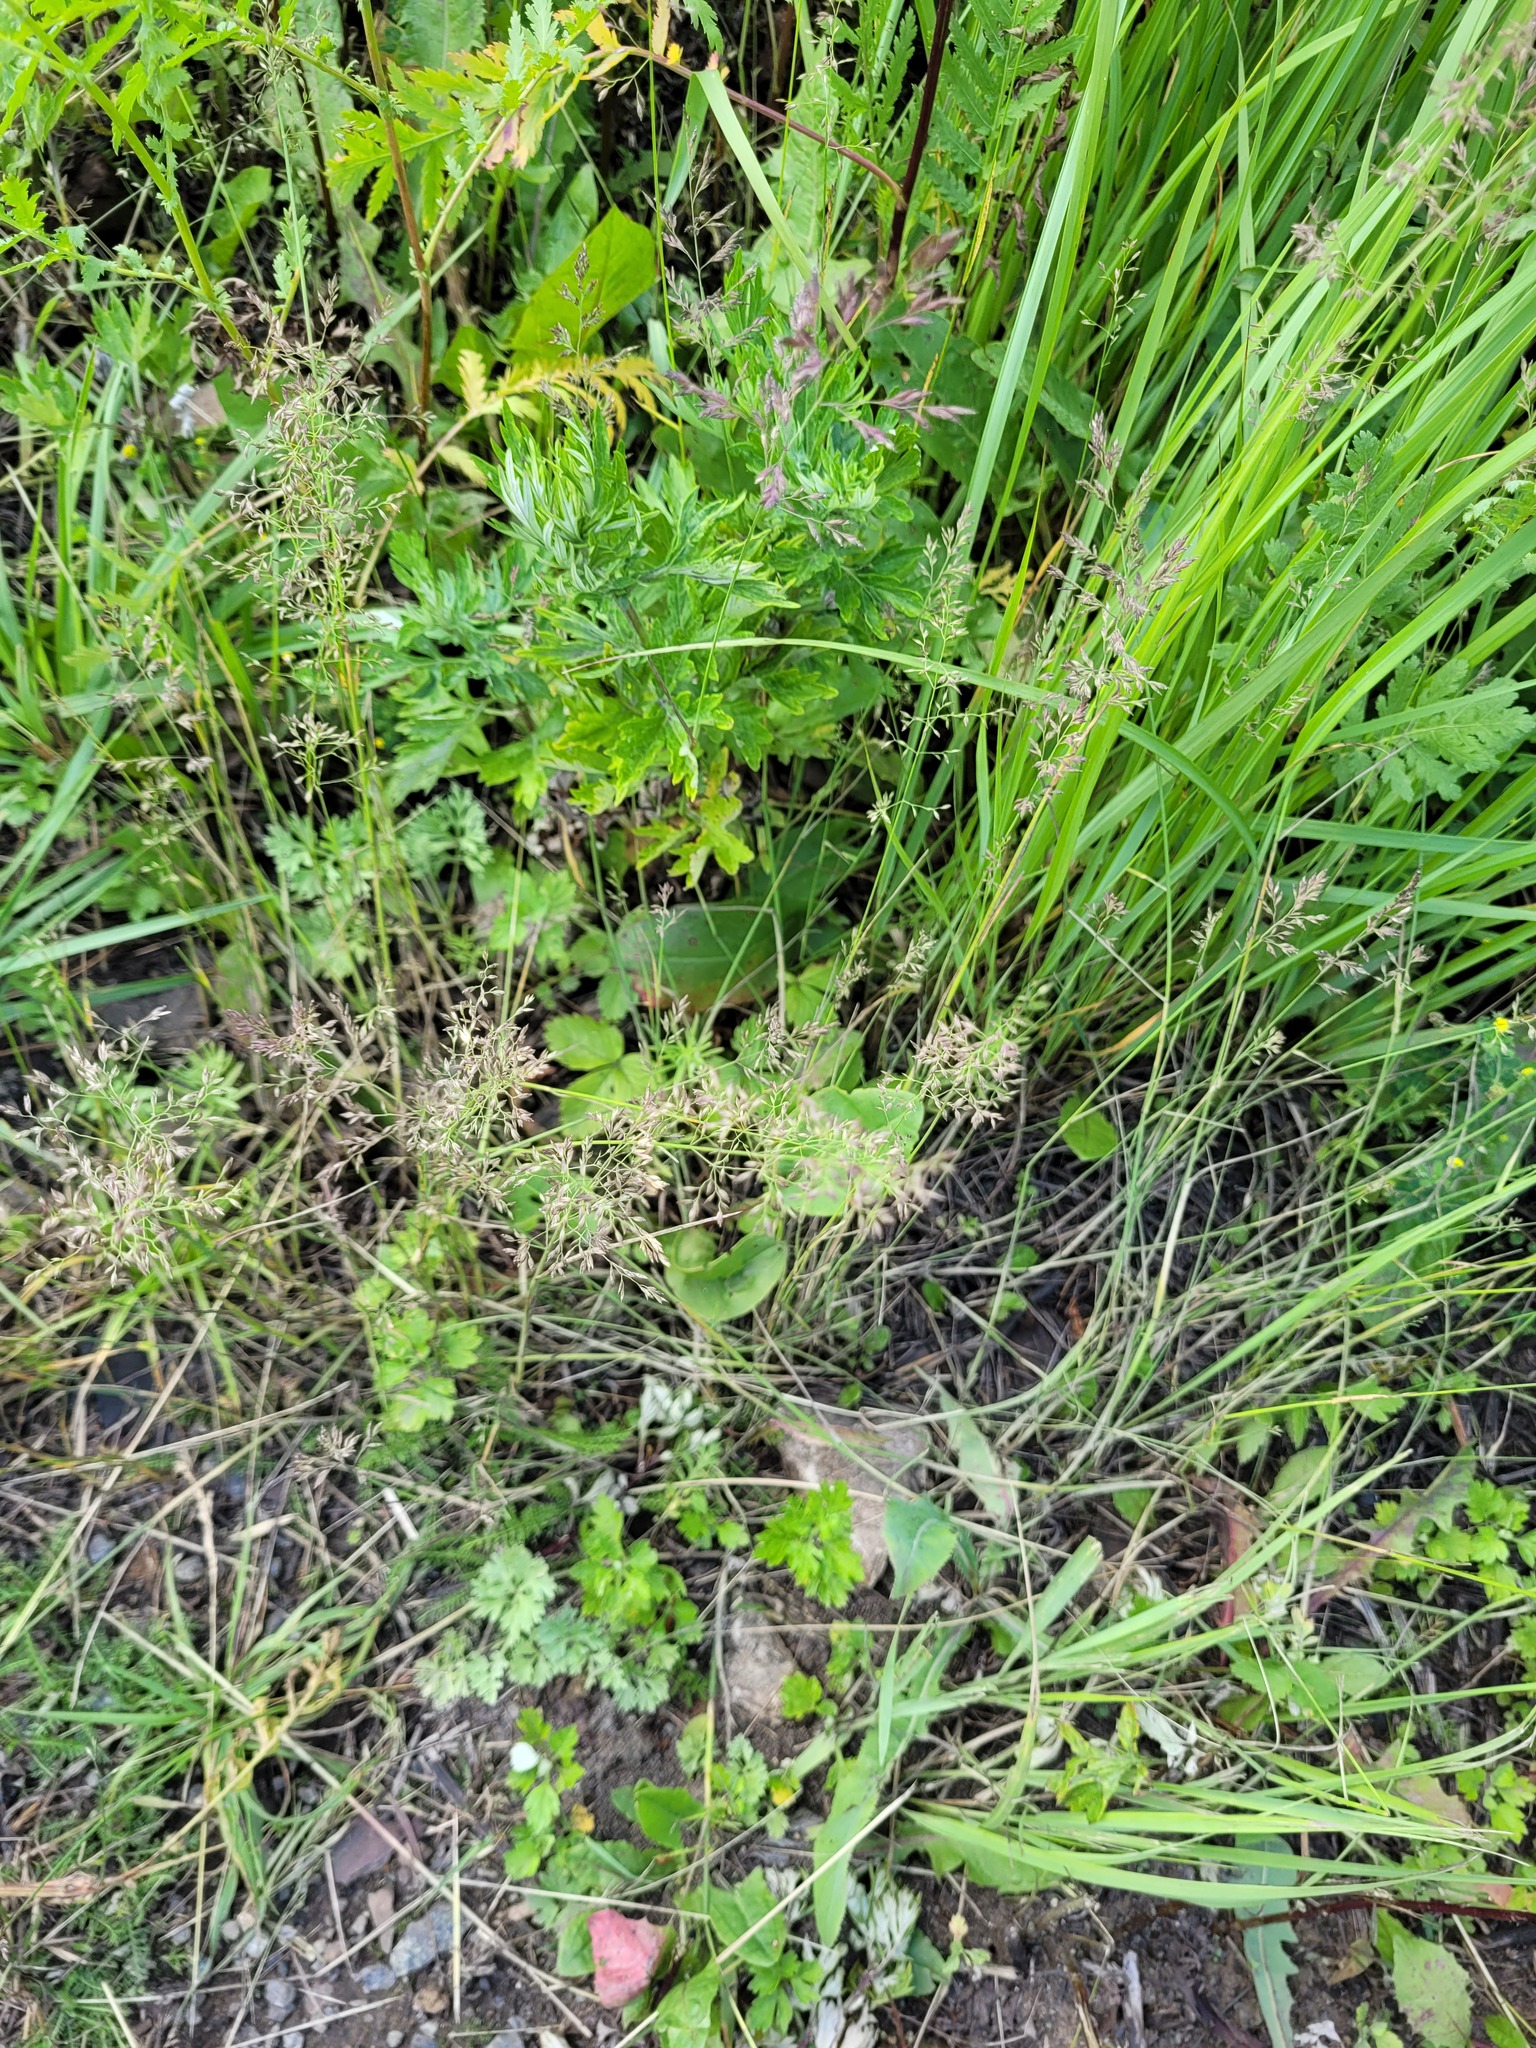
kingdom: Plantae
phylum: Tracheophyta
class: Liliopsida
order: Poales
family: Poaceae
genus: Poa
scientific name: Poa compressa
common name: Canada bluegrass
